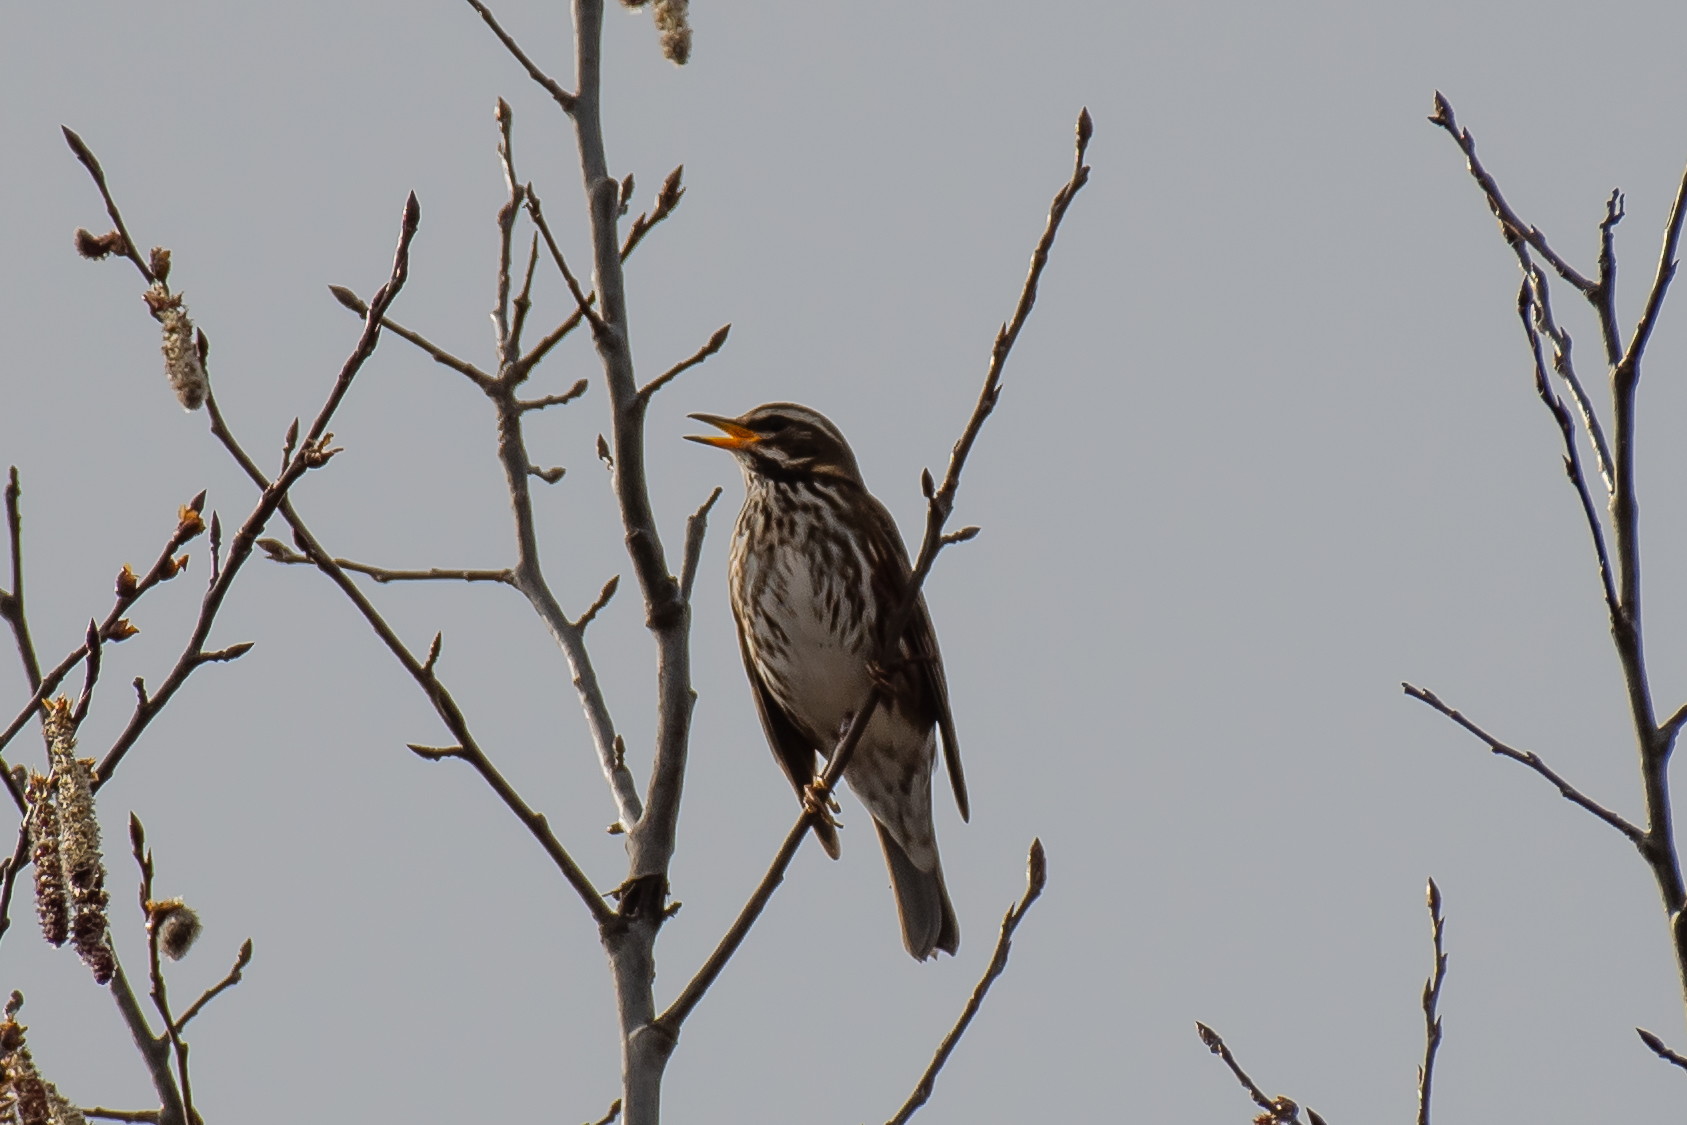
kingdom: Animalia
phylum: Chordata
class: Aves
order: Passeriformes
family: Turdidae
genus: Turdus
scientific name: Turdus iliacus
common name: Redwing
